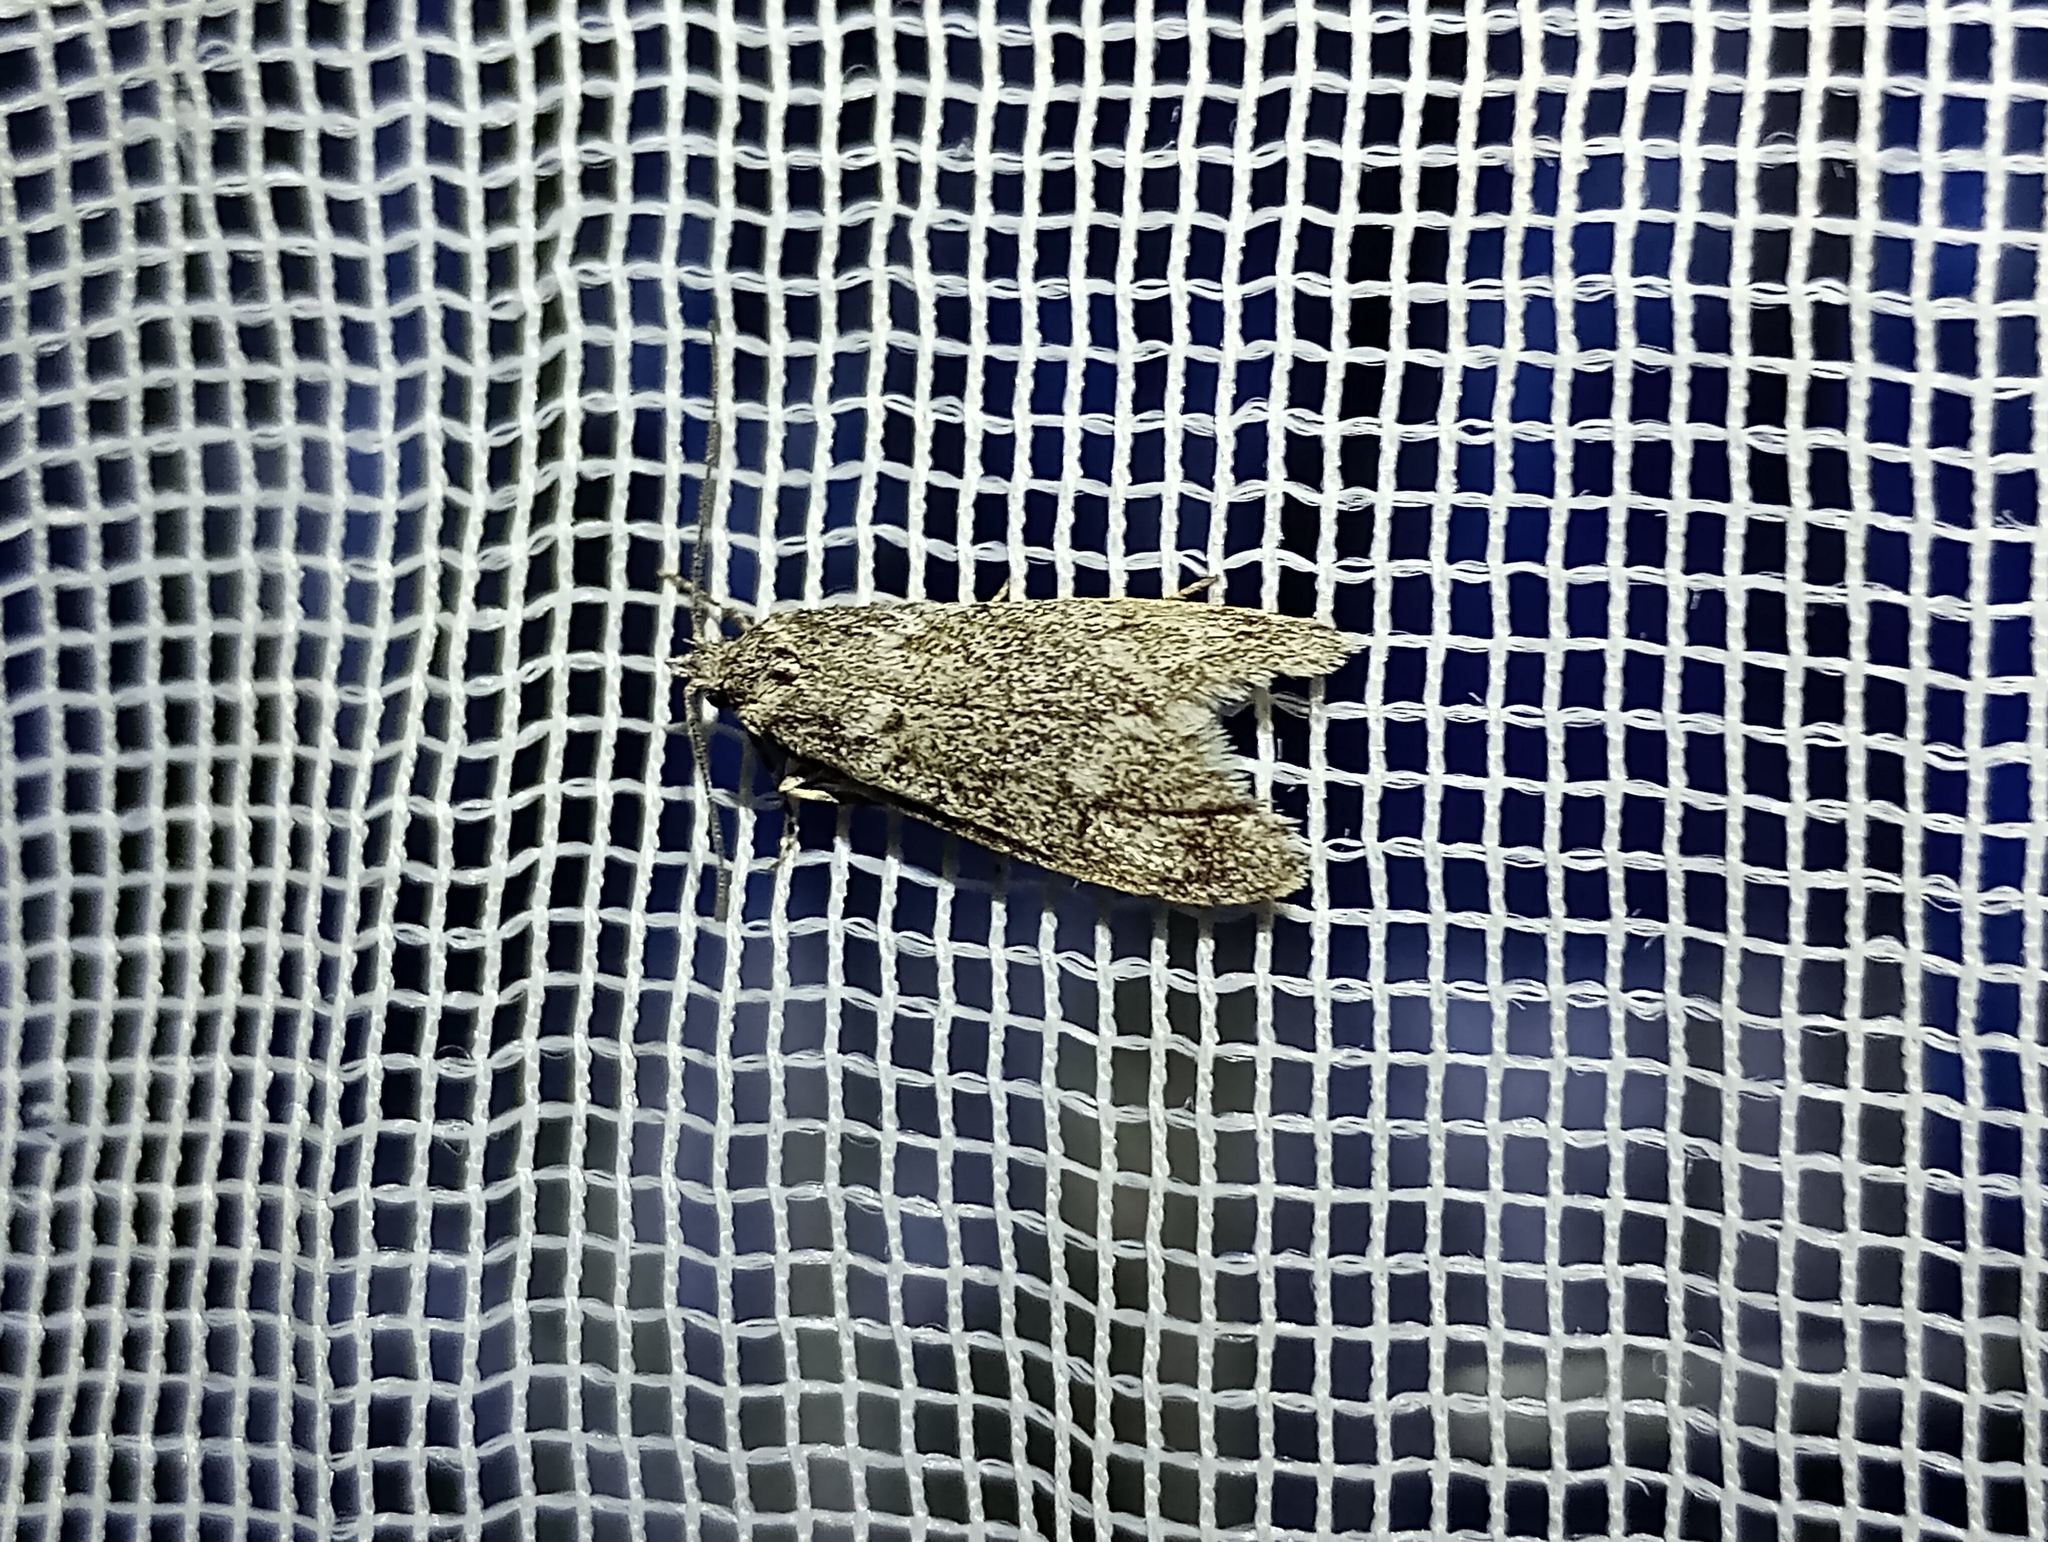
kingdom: Animalia
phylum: Arthropoda
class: Insecta
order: Lepidoptera
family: Lypusidae
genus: Diurnea
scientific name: Diurnea fagella
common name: March tubic
